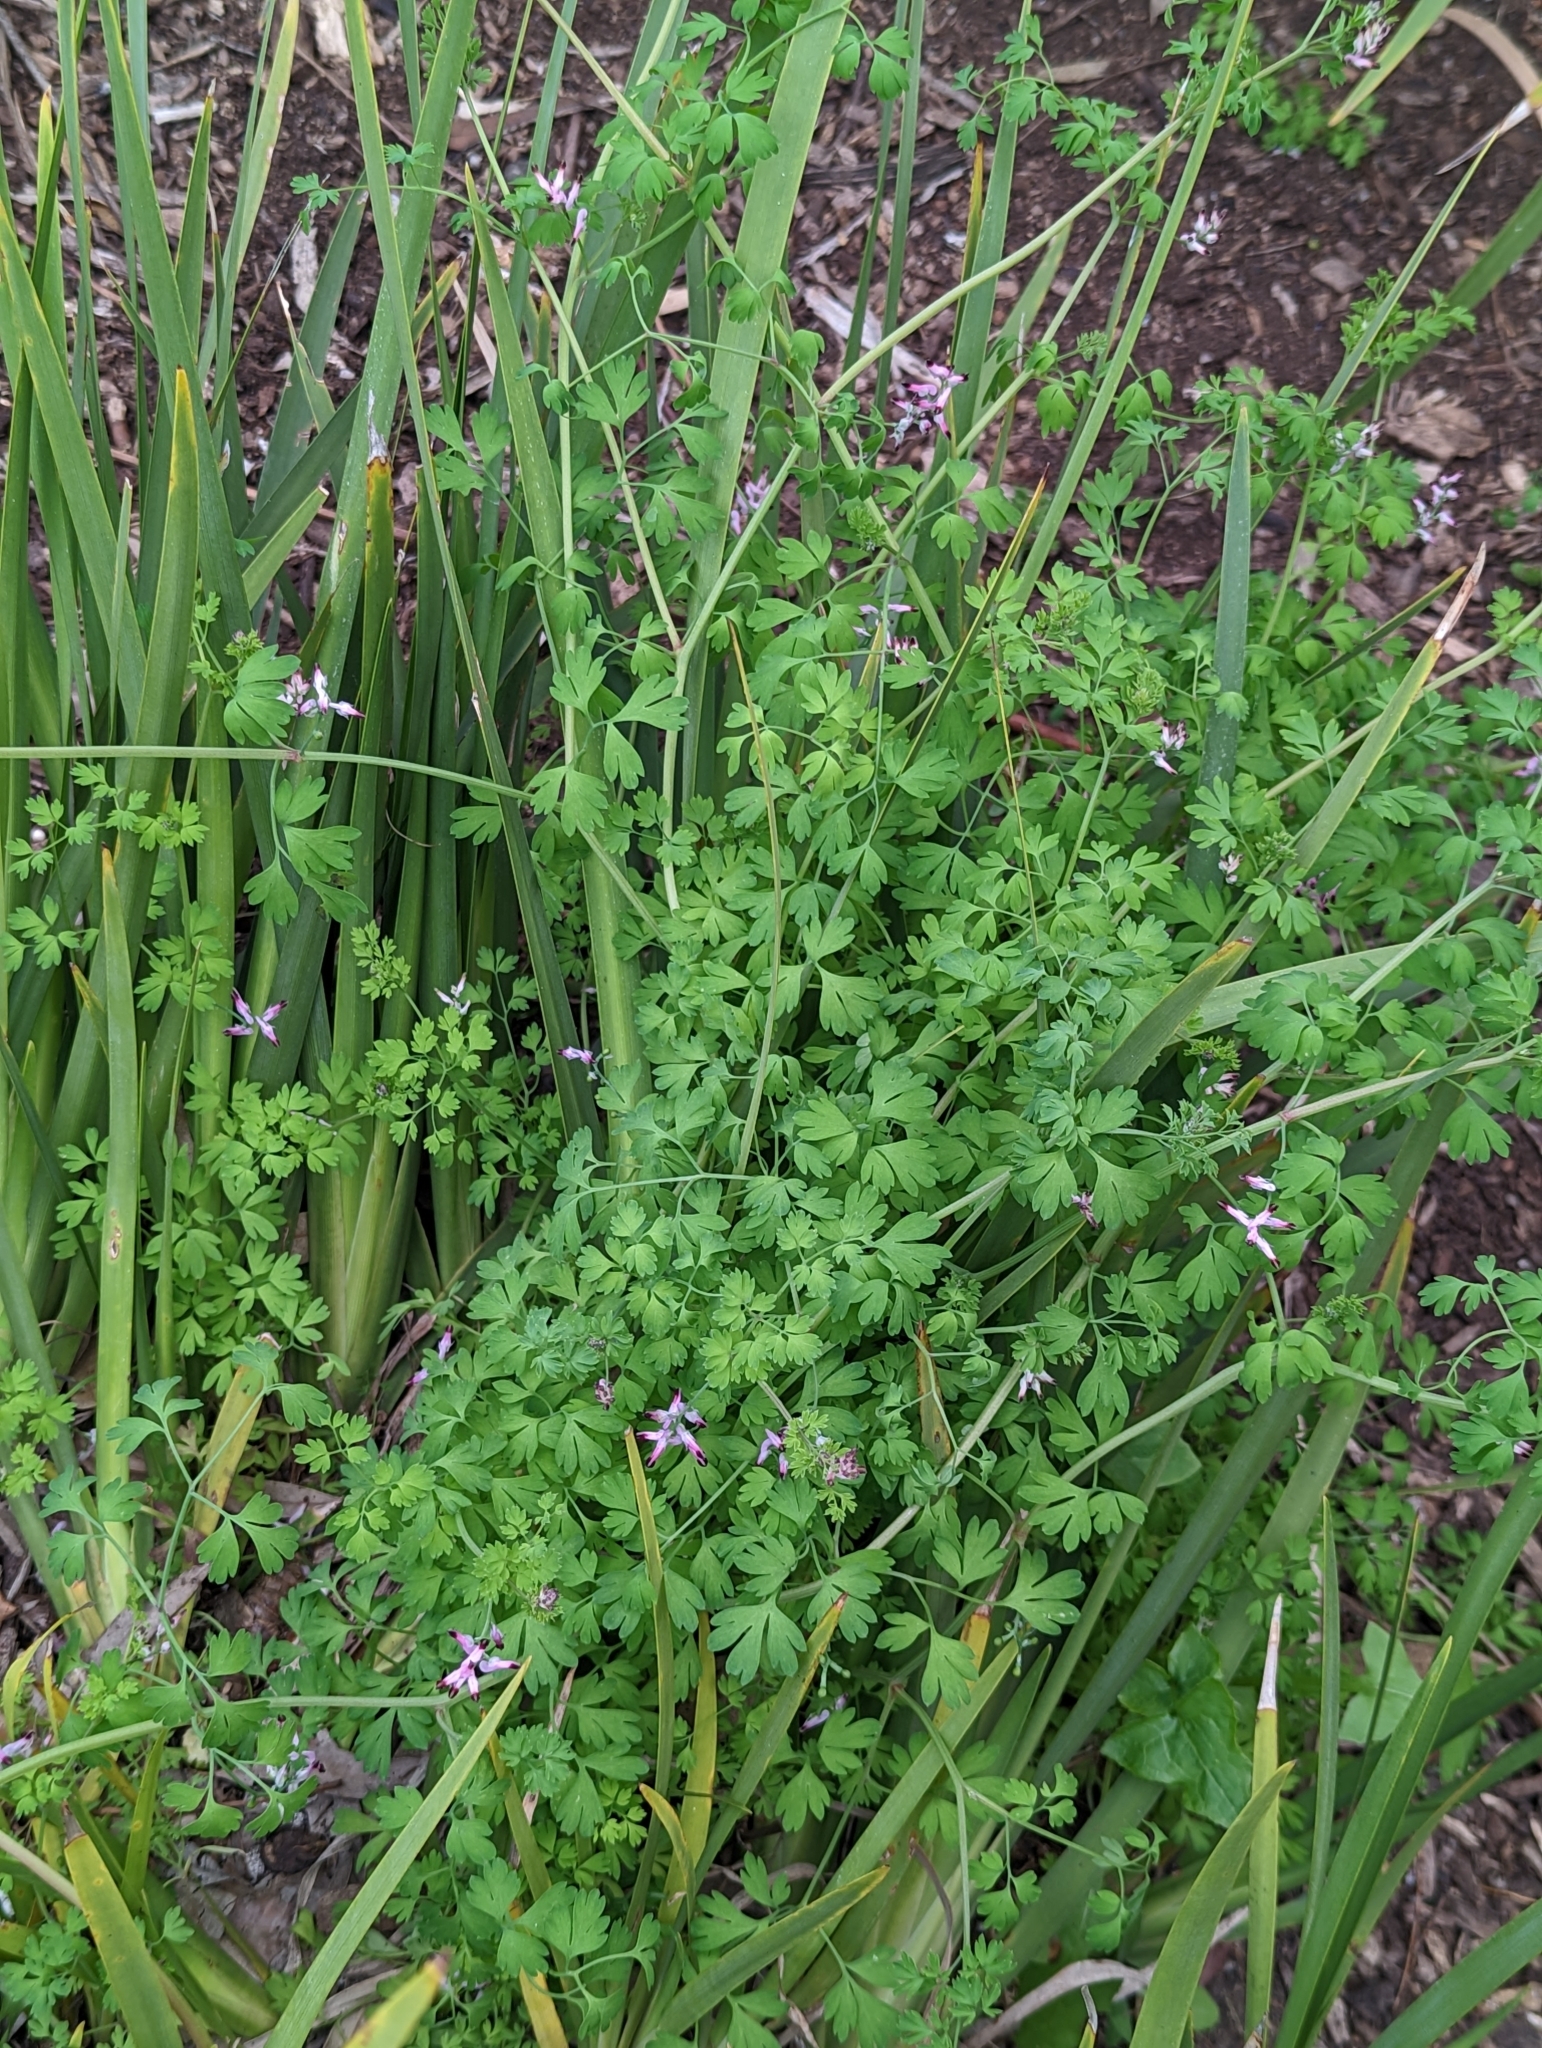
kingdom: Plantae
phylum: Tracheophyta
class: Magnoliopsida
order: Ranunculales
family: Papaveraceae
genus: Fumaria
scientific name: Fumaria muralis
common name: Common ramping-fumitory
